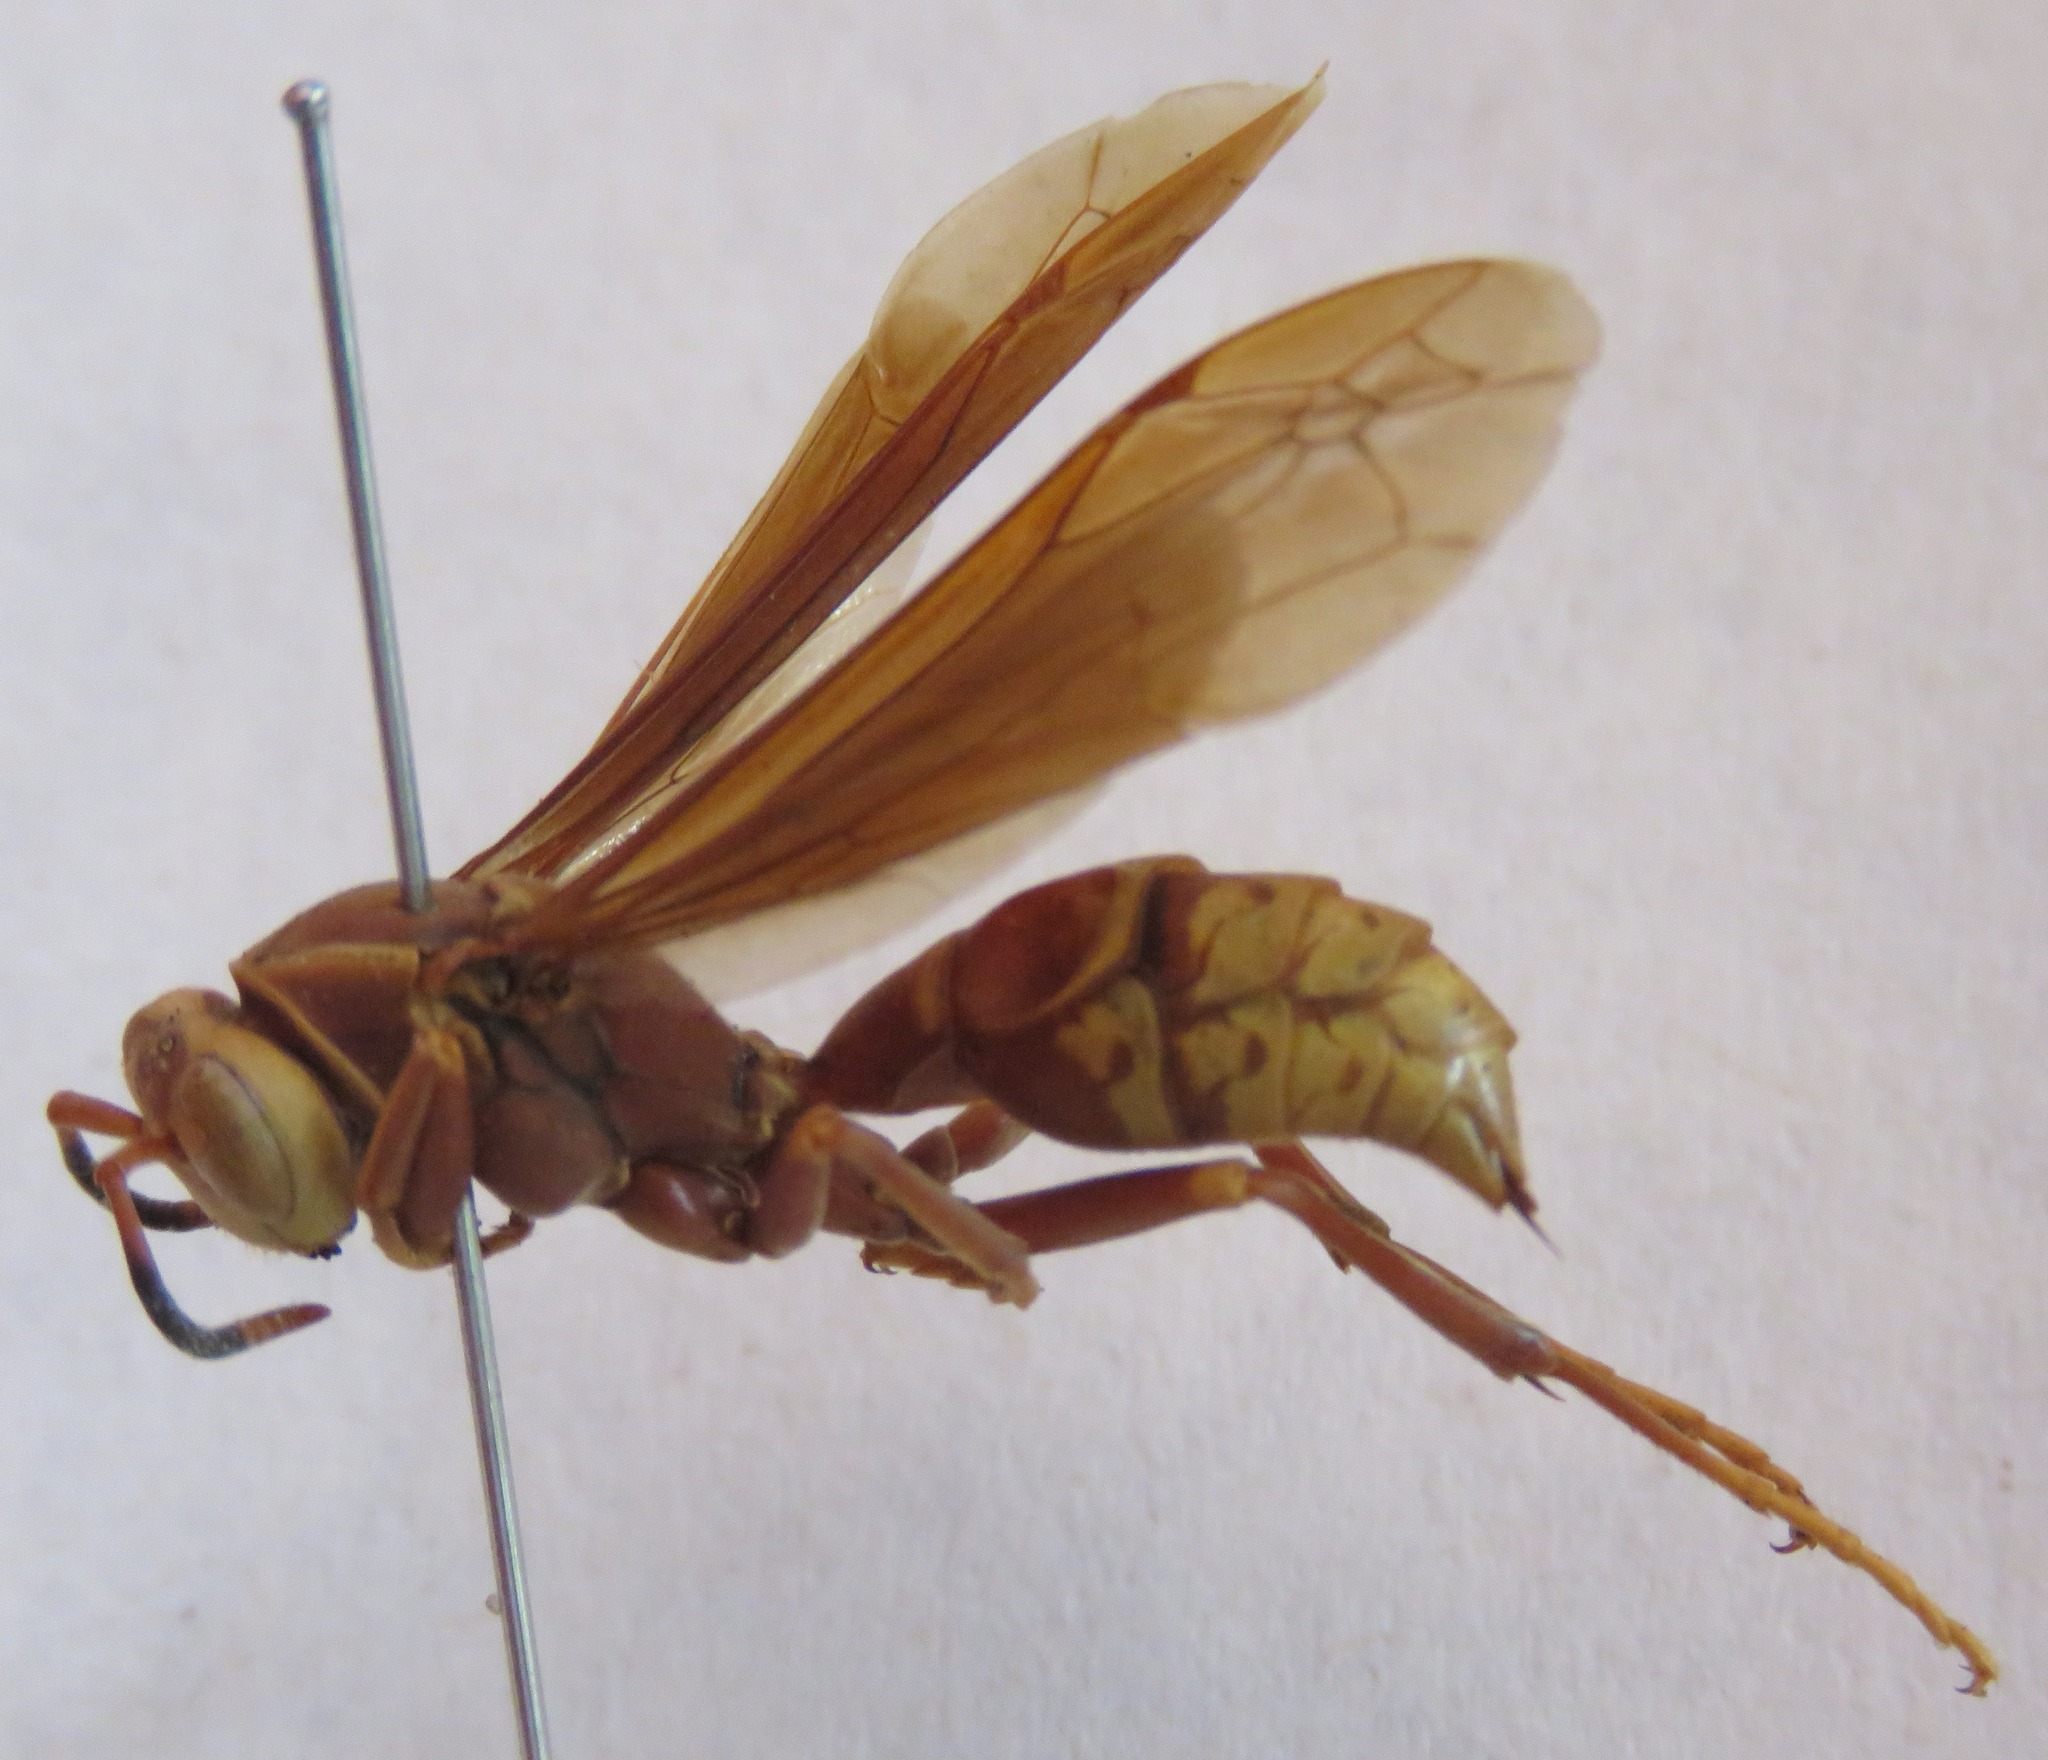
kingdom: Animalia
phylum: Arthropoda
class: Insecta
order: Hymenoptera
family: Eumenidae
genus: Polistes
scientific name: Polistes cavapyta
